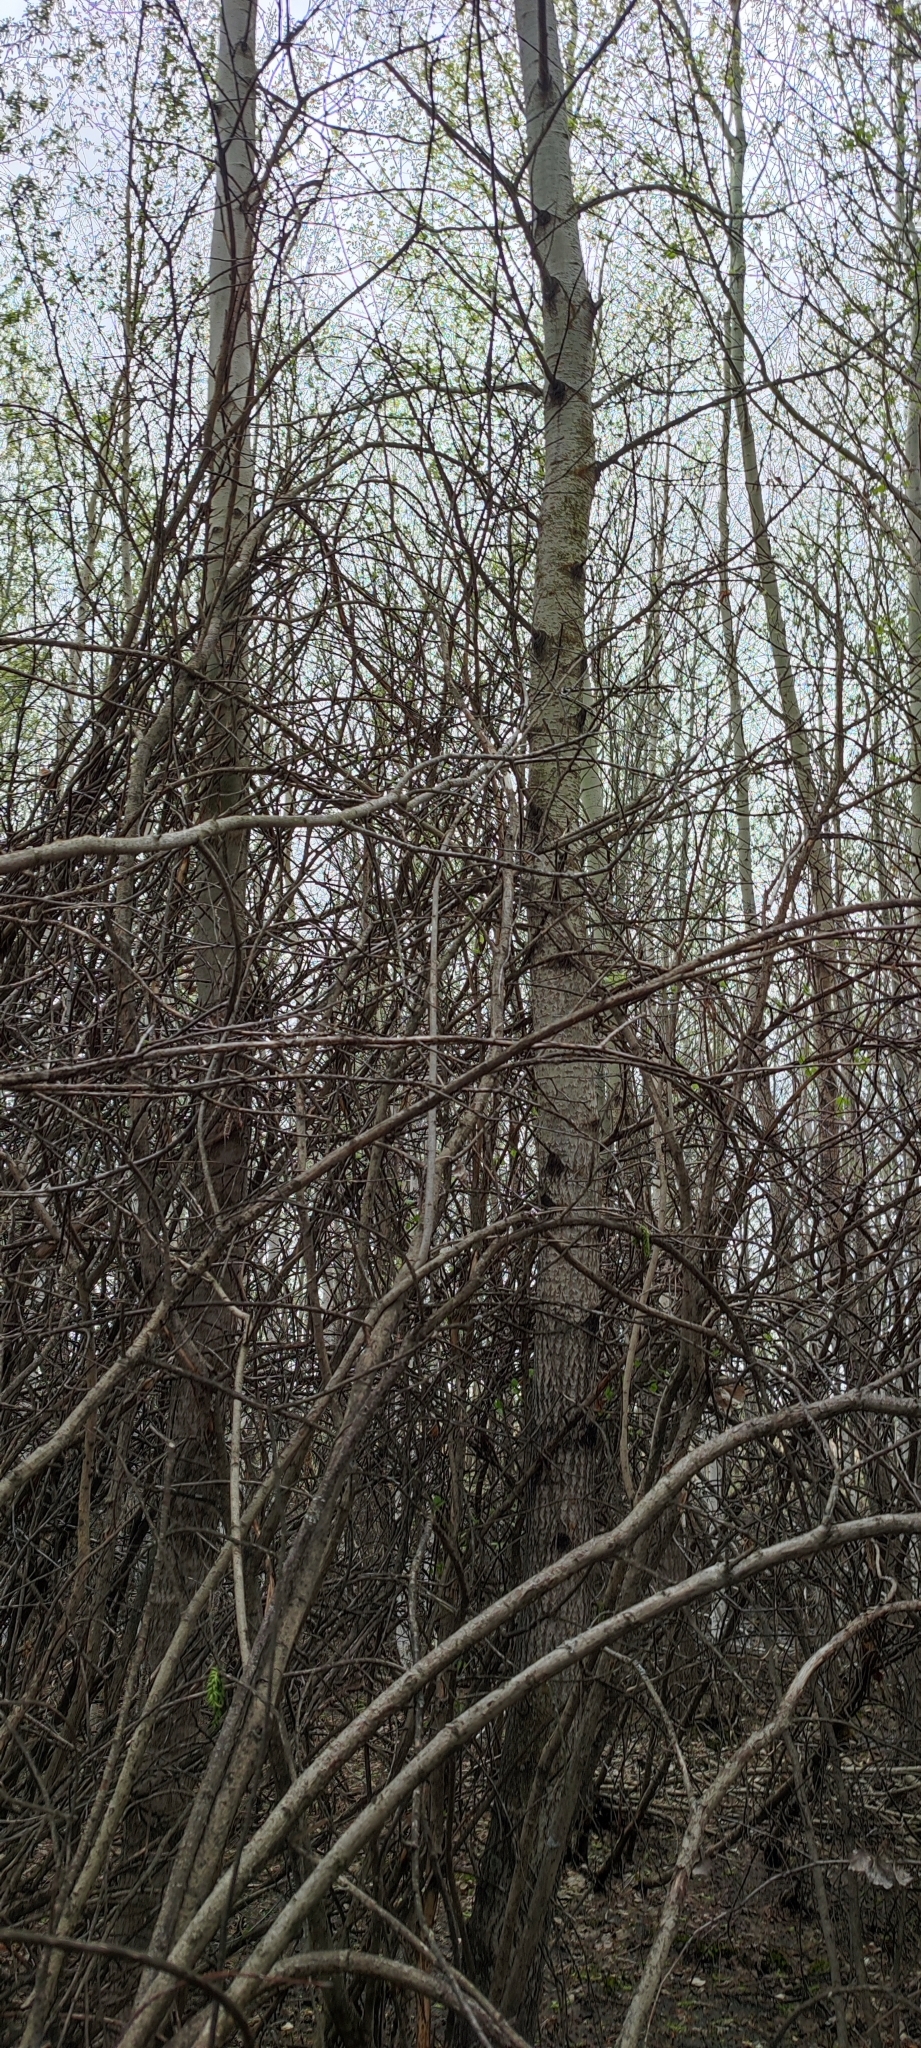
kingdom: Plantae
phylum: Tracheophyta
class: Magnoliopsida
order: Malpighiales
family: Salicaceae
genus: Populus
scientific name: Populus tremula
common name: European aspen
